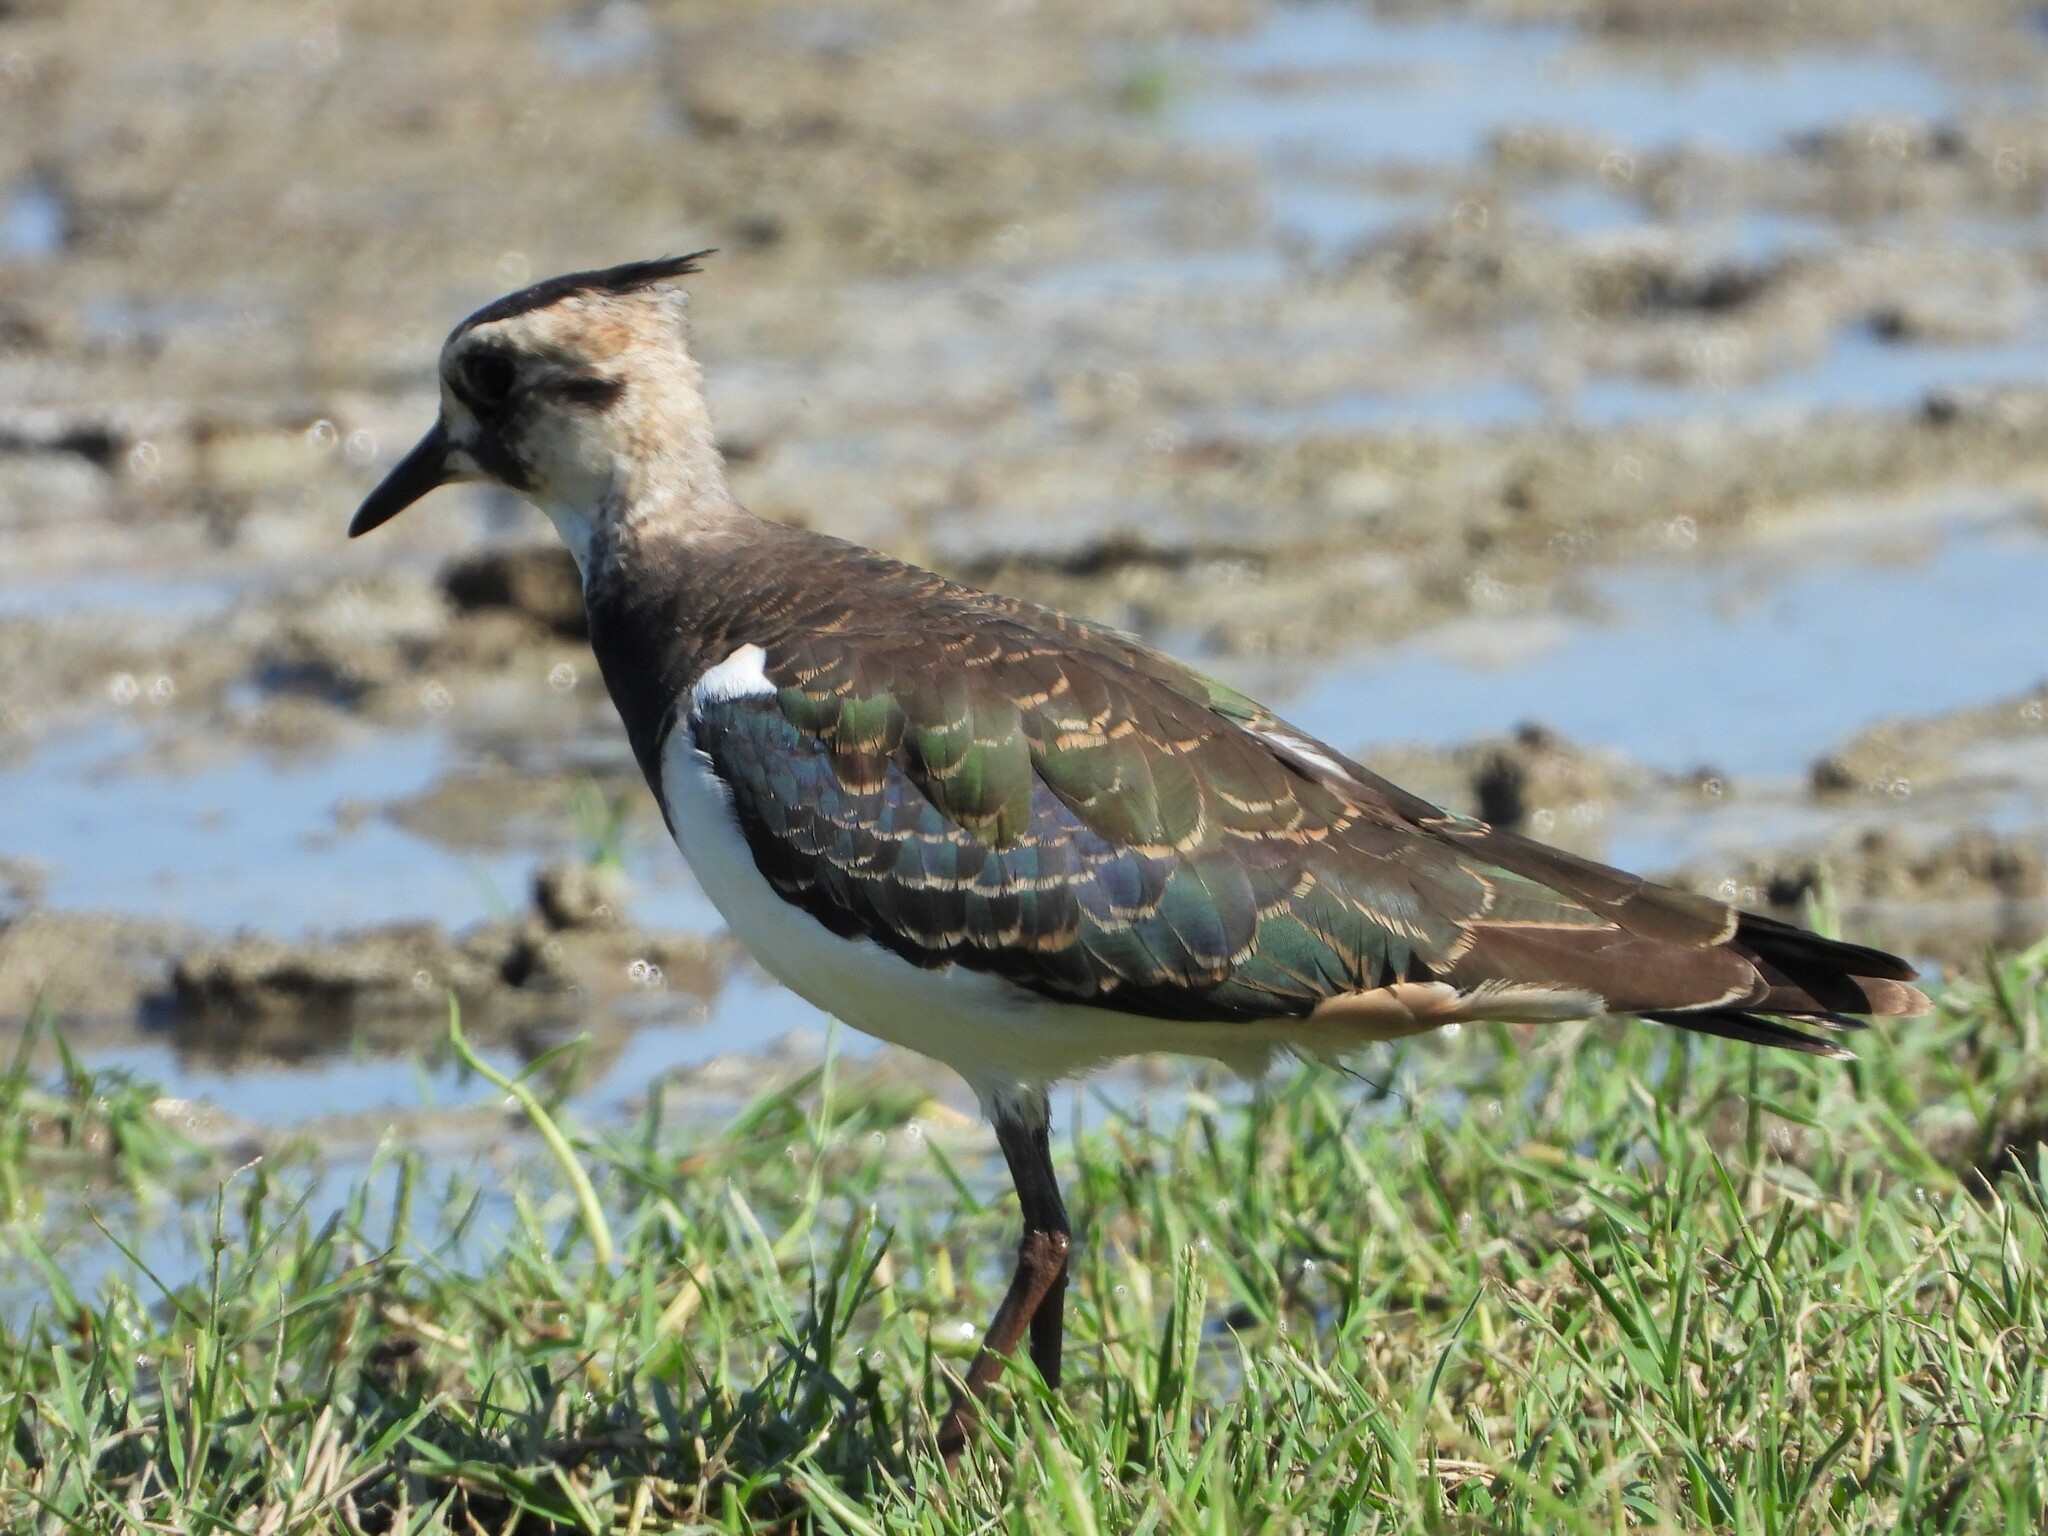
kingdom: Animalia
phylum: Chordata
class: Aves
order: Charadriiformes
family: Charadriidae
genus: Vanellus
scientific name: Vanellus vanellus
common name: Northern lapwing
